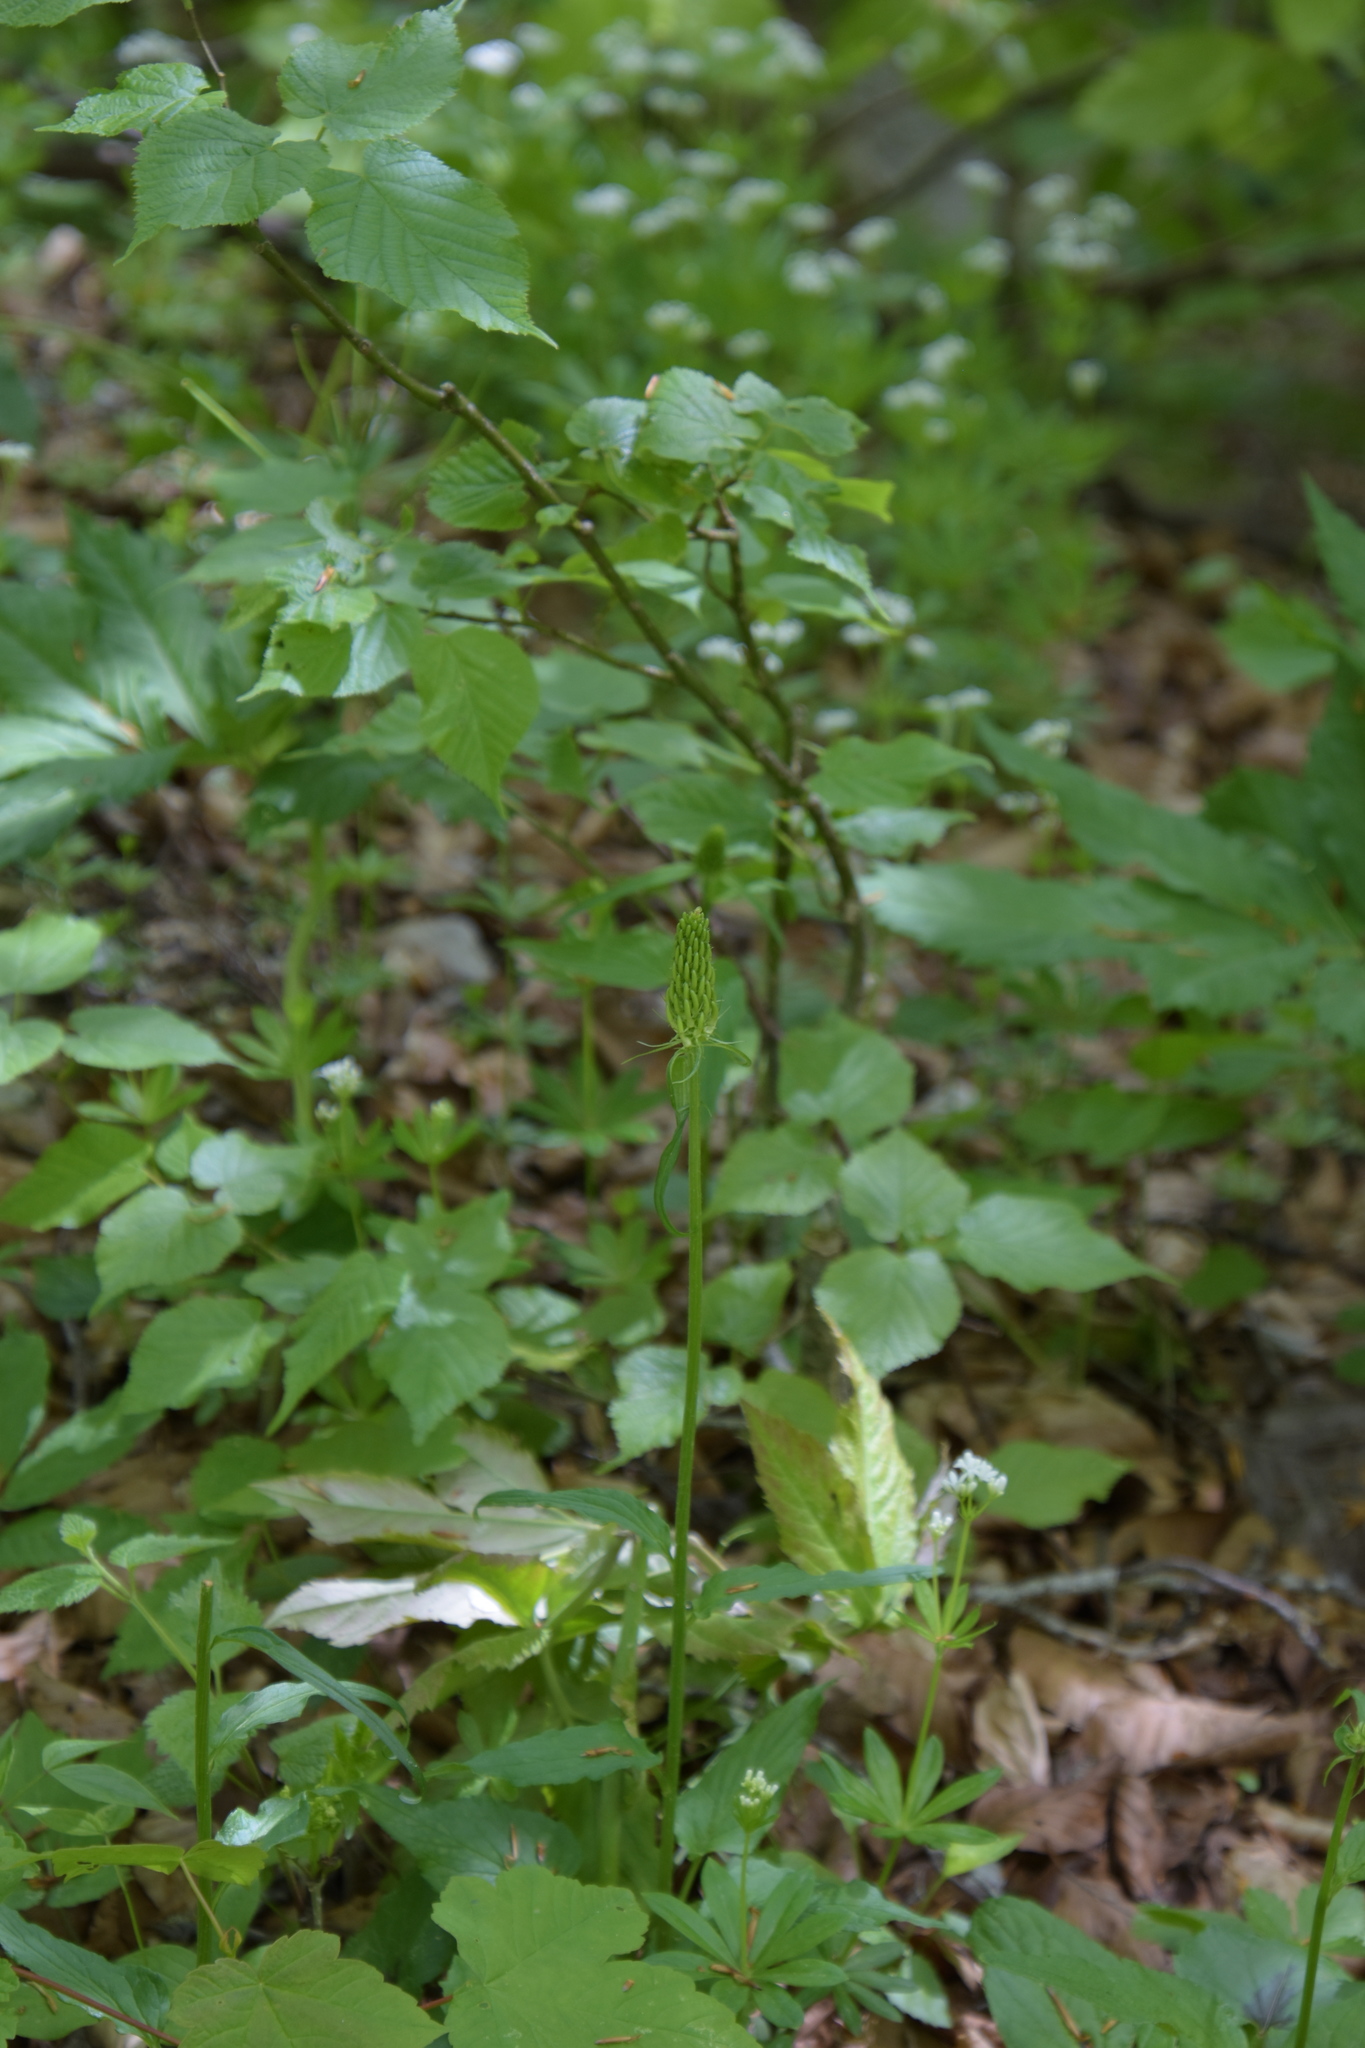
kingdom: Plantae
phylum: Tracheophyta
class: Magnoliopsida
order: Asterales
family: Campanulaceae
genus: Phyteuma
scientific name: Phyteuma spicatum
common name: Spiked rampion
